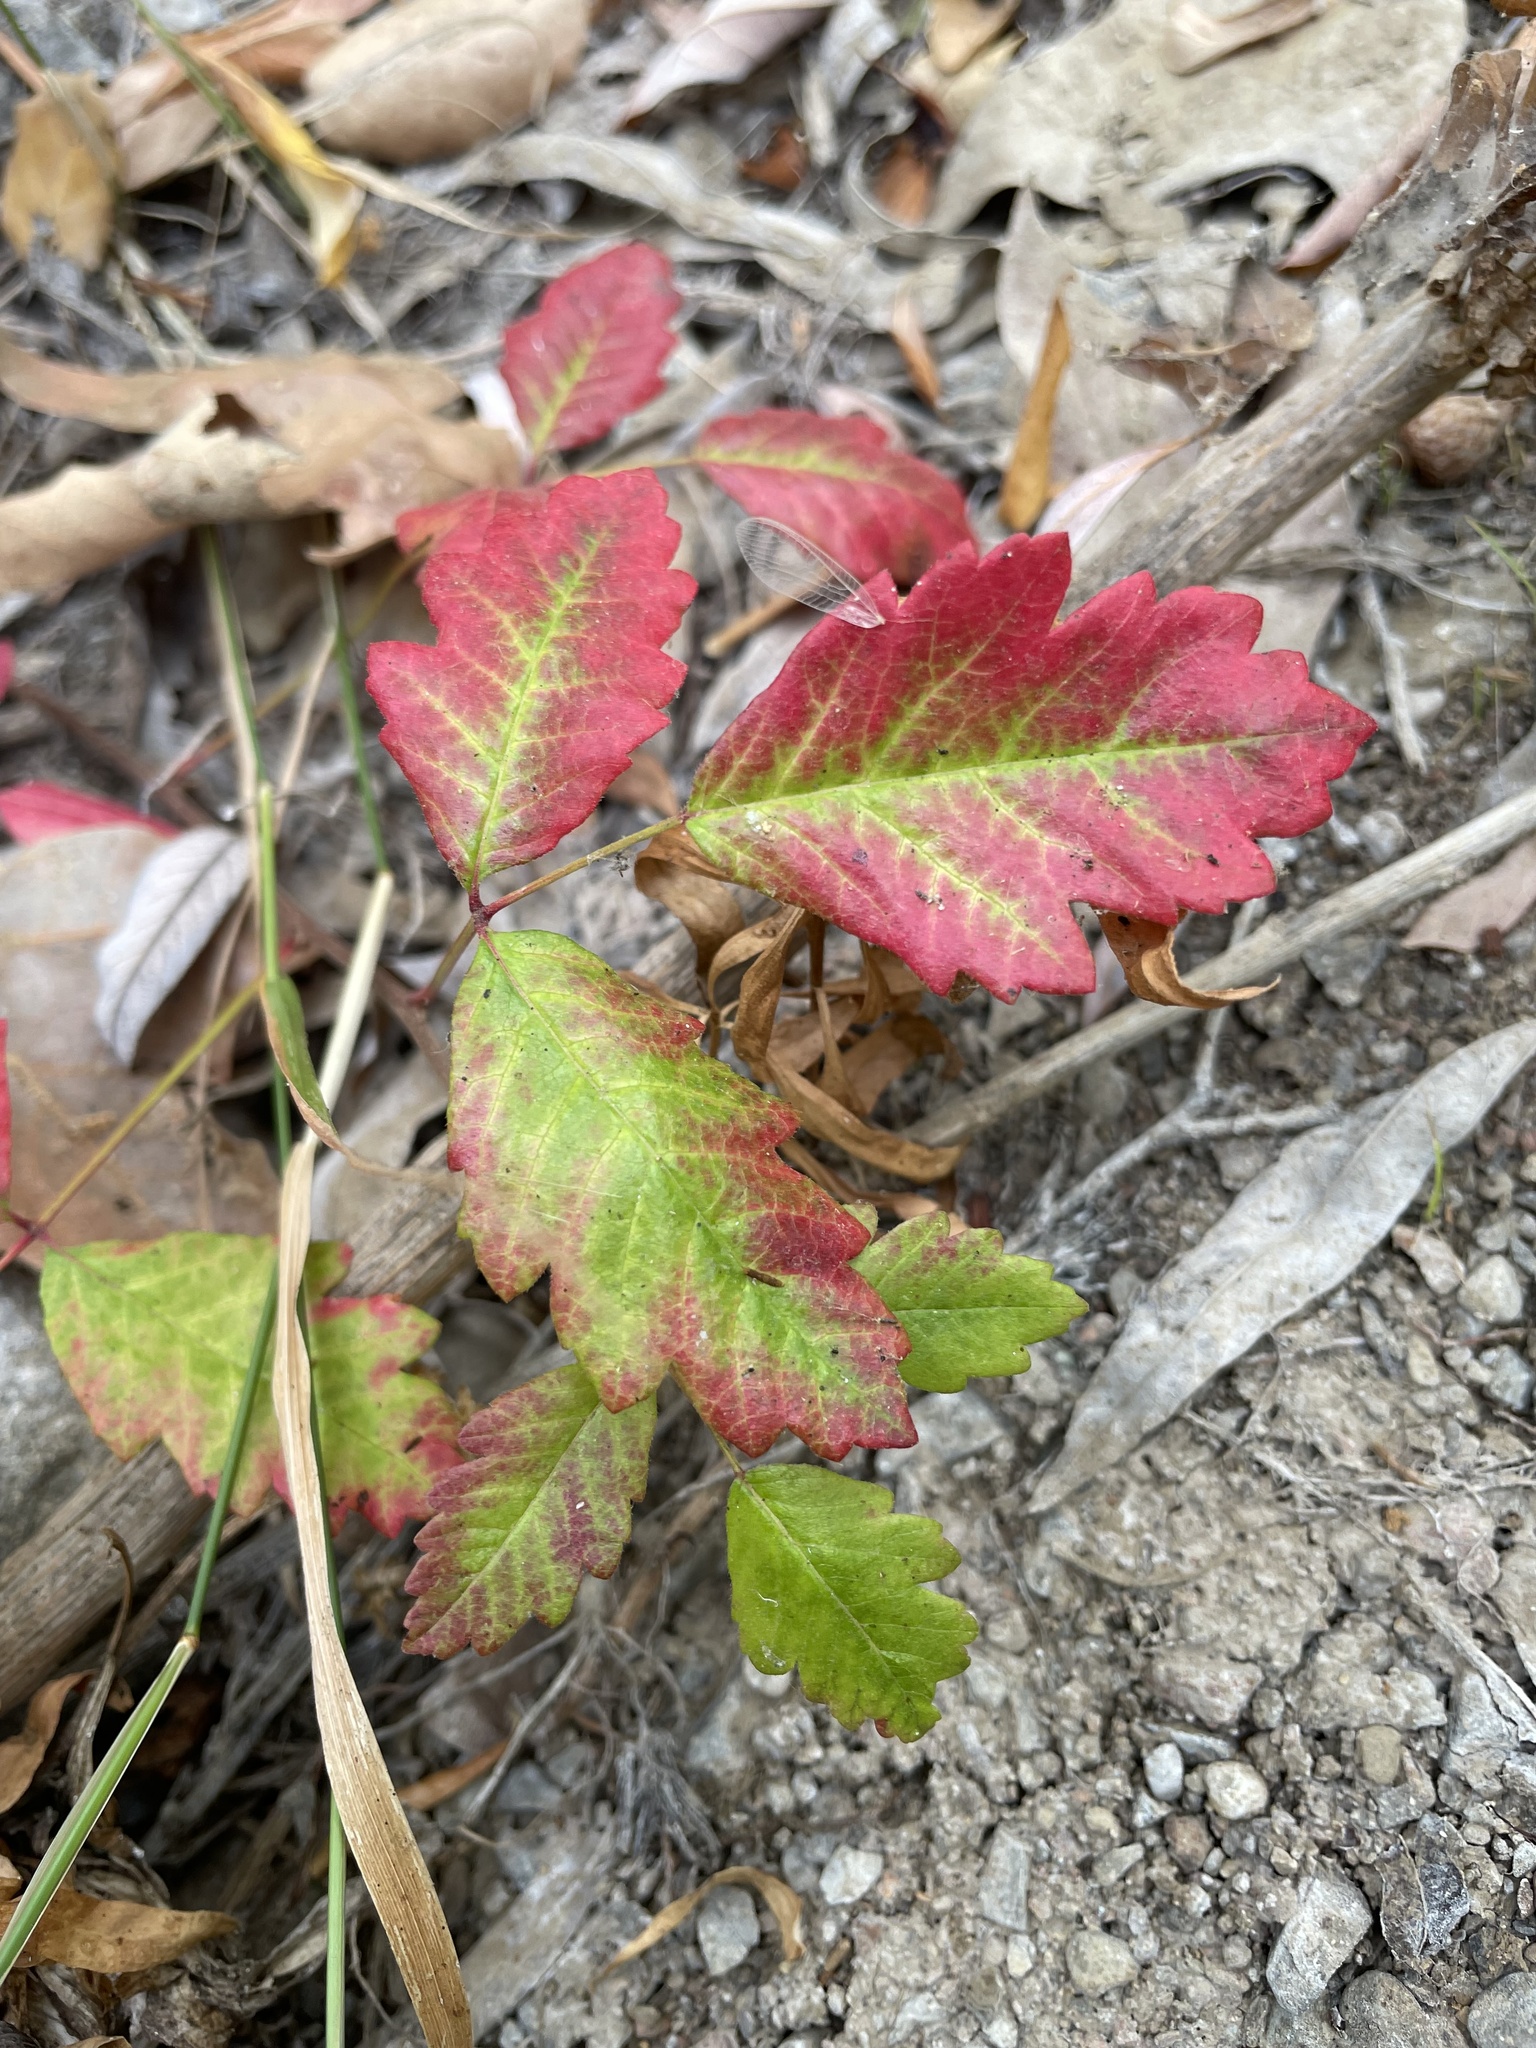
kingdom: Plantae
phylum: Tracheophyta
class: Magnoliopsida
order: Sapindales
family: Anacardiaceae
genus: Toxicodendron
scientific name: Toxicodendron diversilobum
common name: Pacific poison-oak
